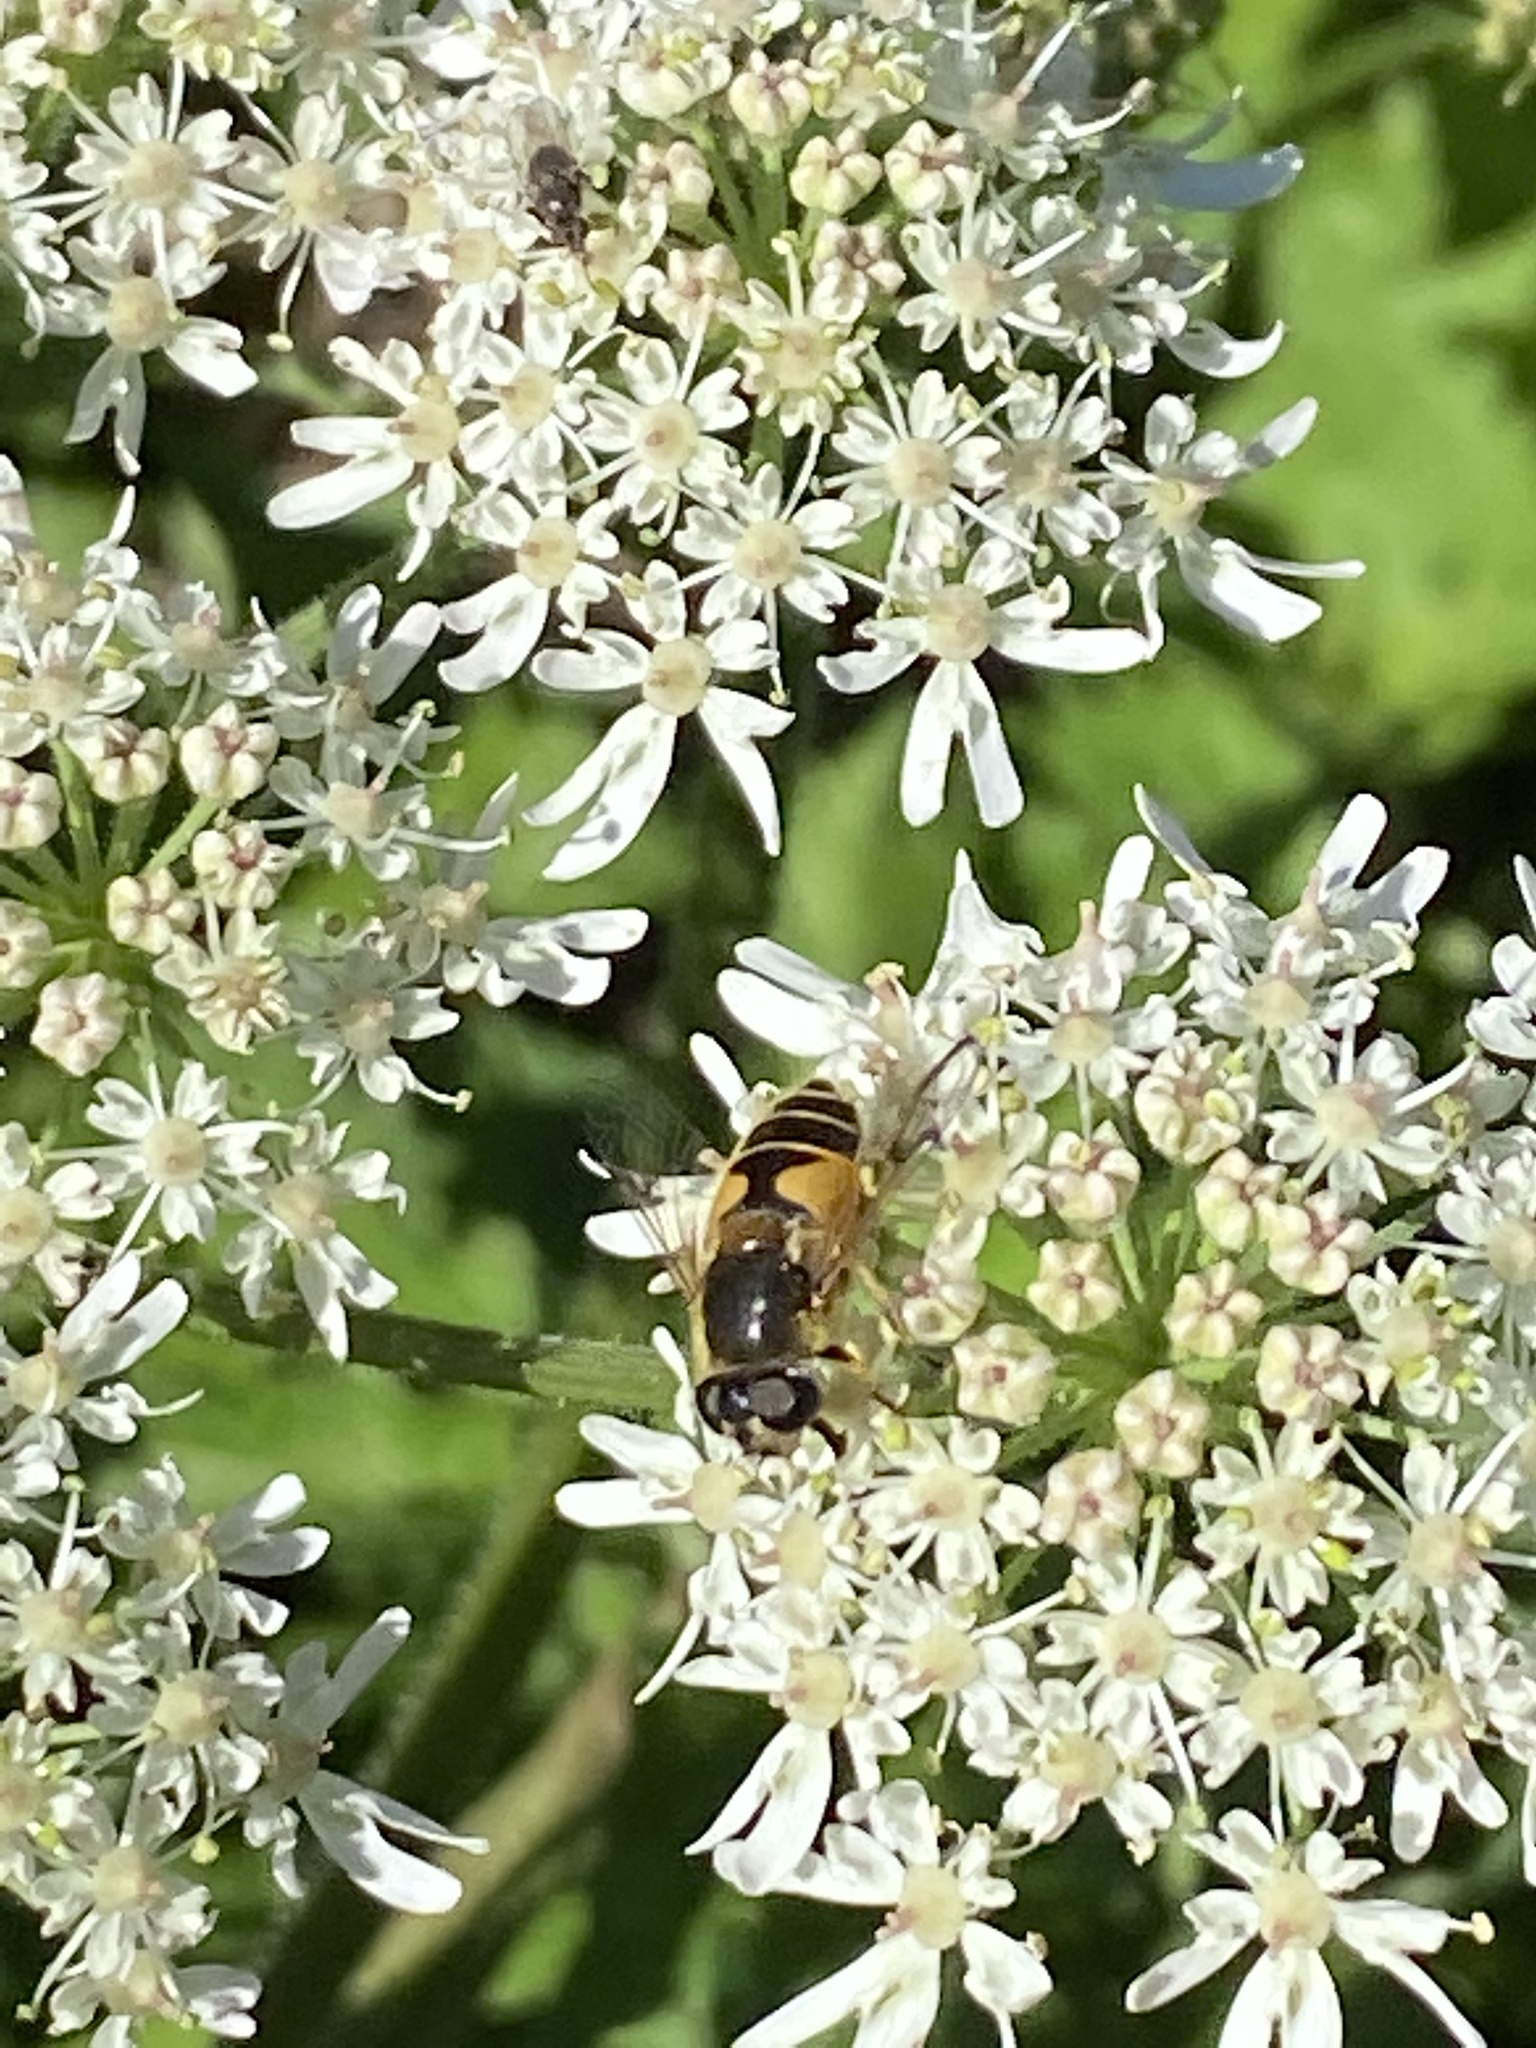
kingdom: Animalia
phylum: Arthropoda
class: Insecta
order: Diptera
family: Syrphidae
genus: Cheilosia
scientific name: Cheilosia morio
